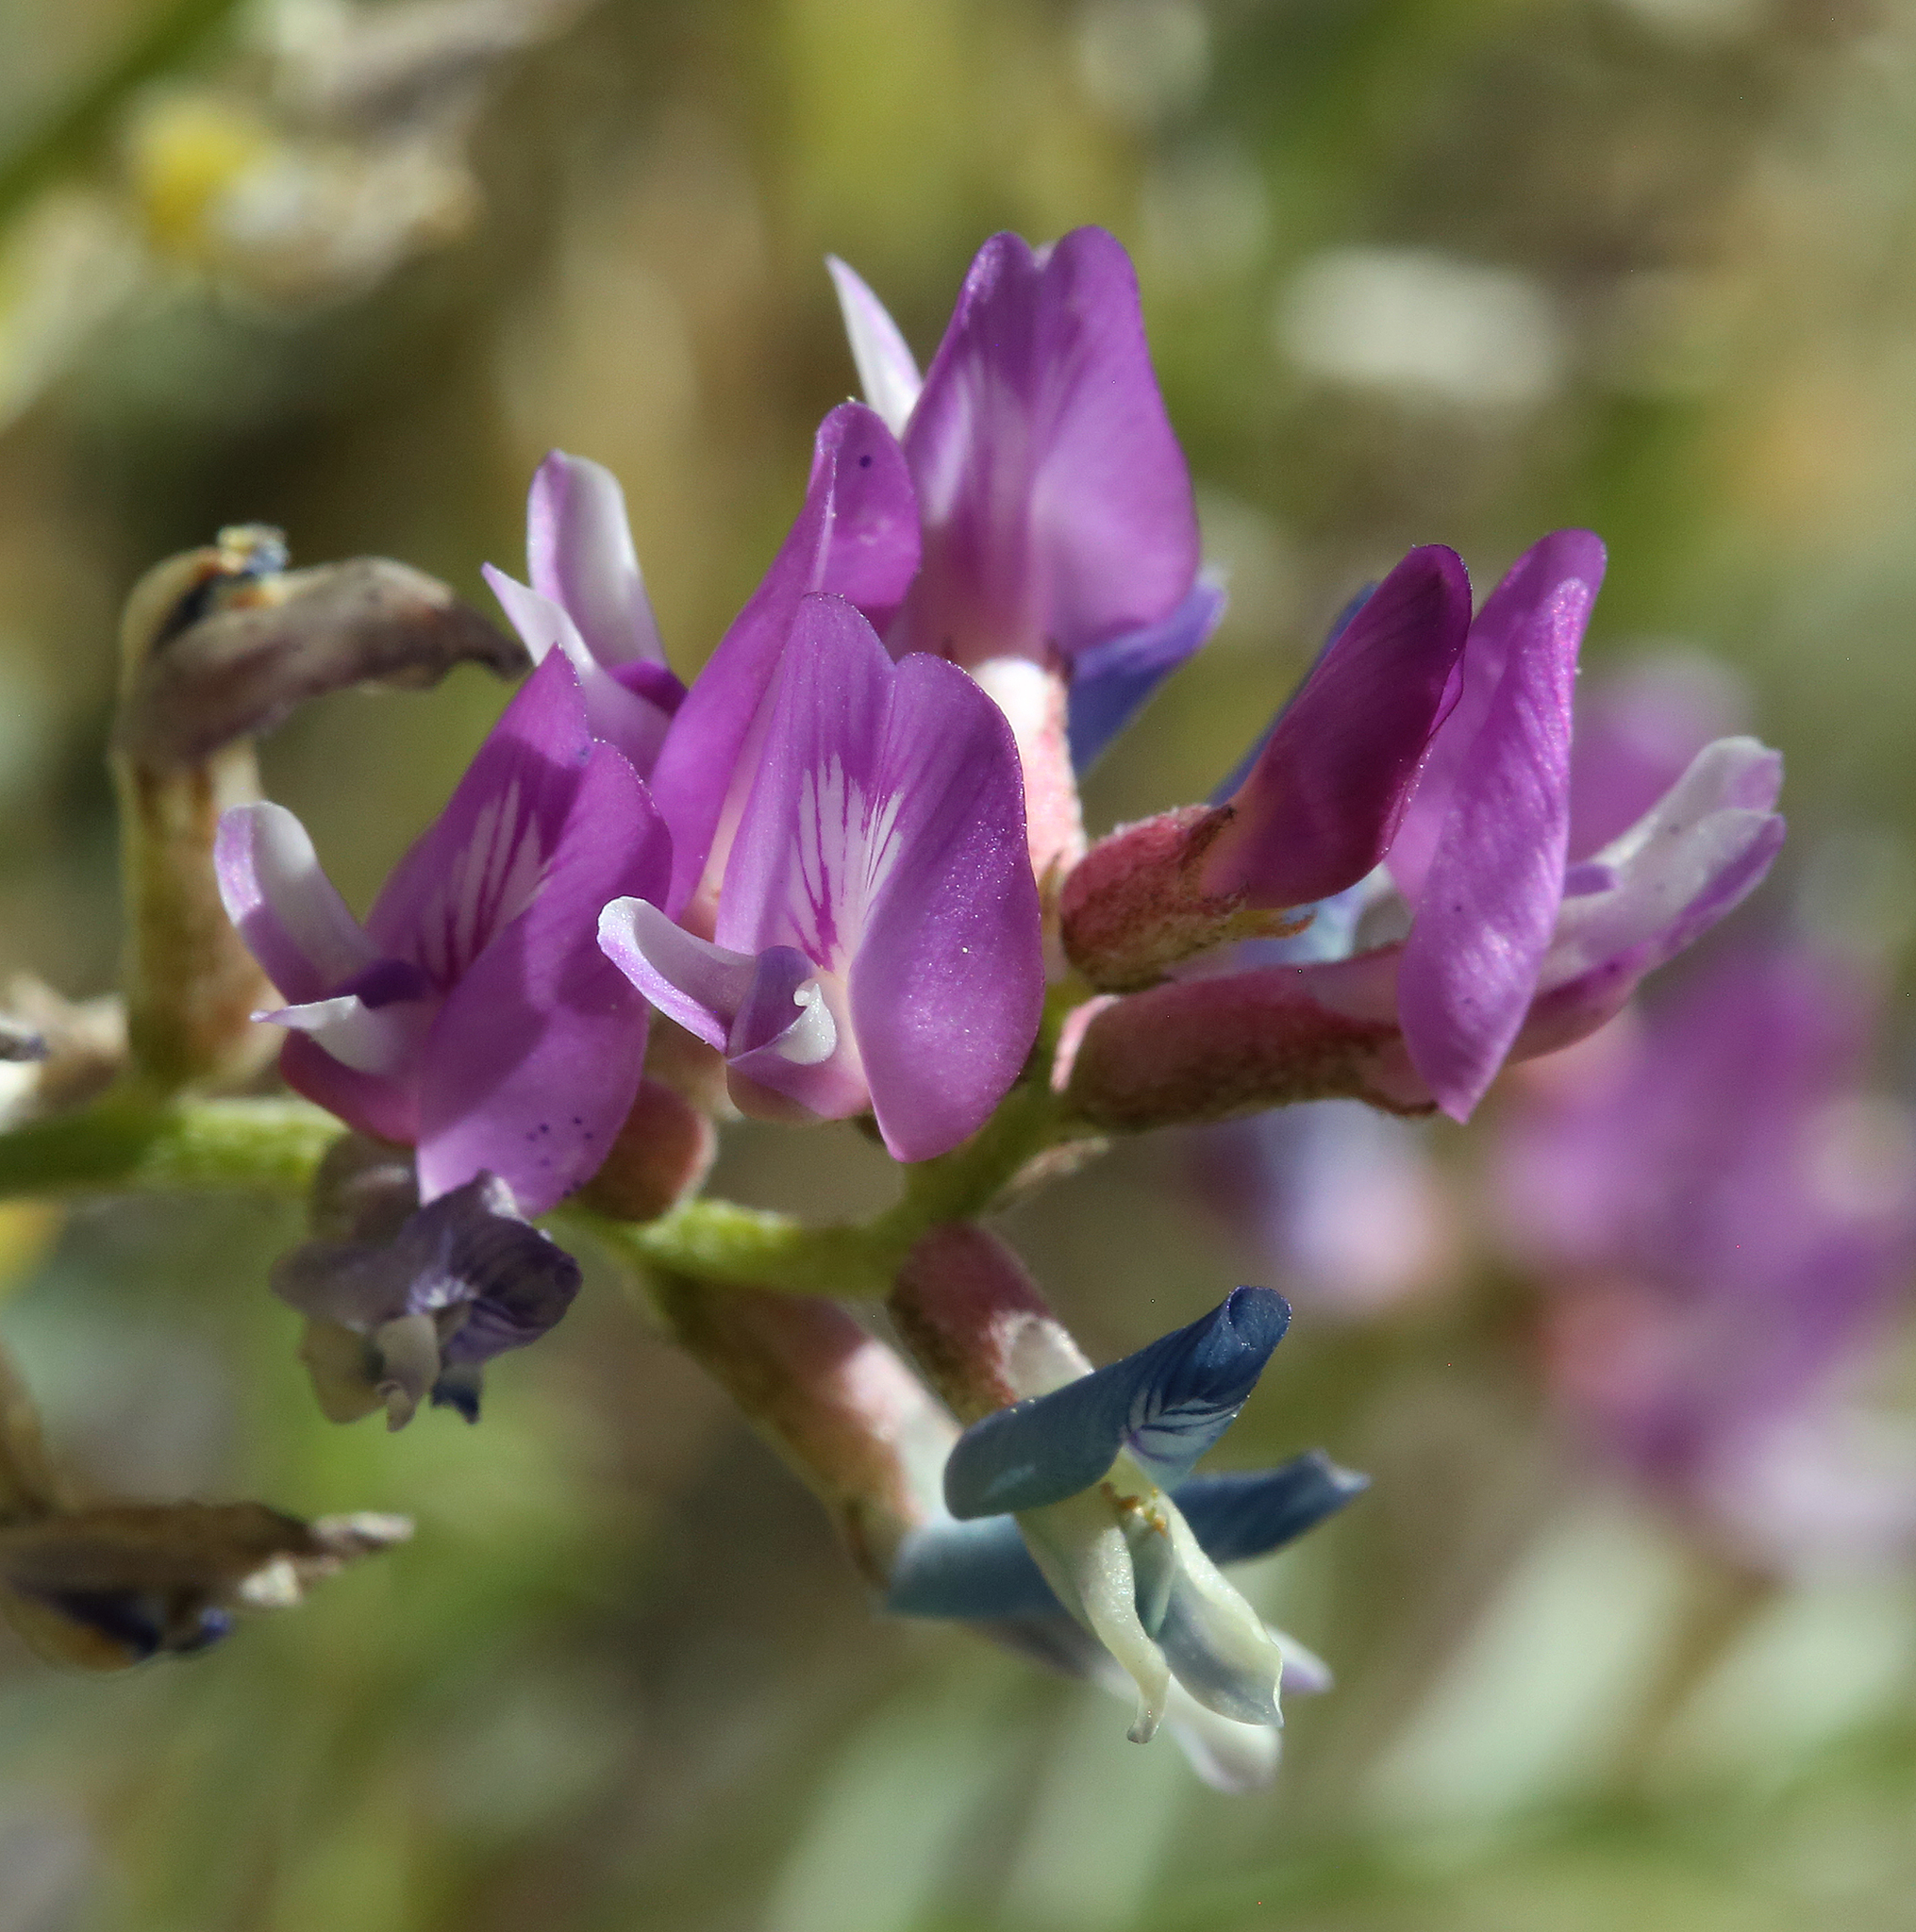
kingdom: Plantae
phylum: Tracheophyta
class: Magnoliopsida
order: Fabales
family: Fabaceae
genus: Astragalus
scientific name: Astragalus lentiginosus
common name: Freckled milkvetch
